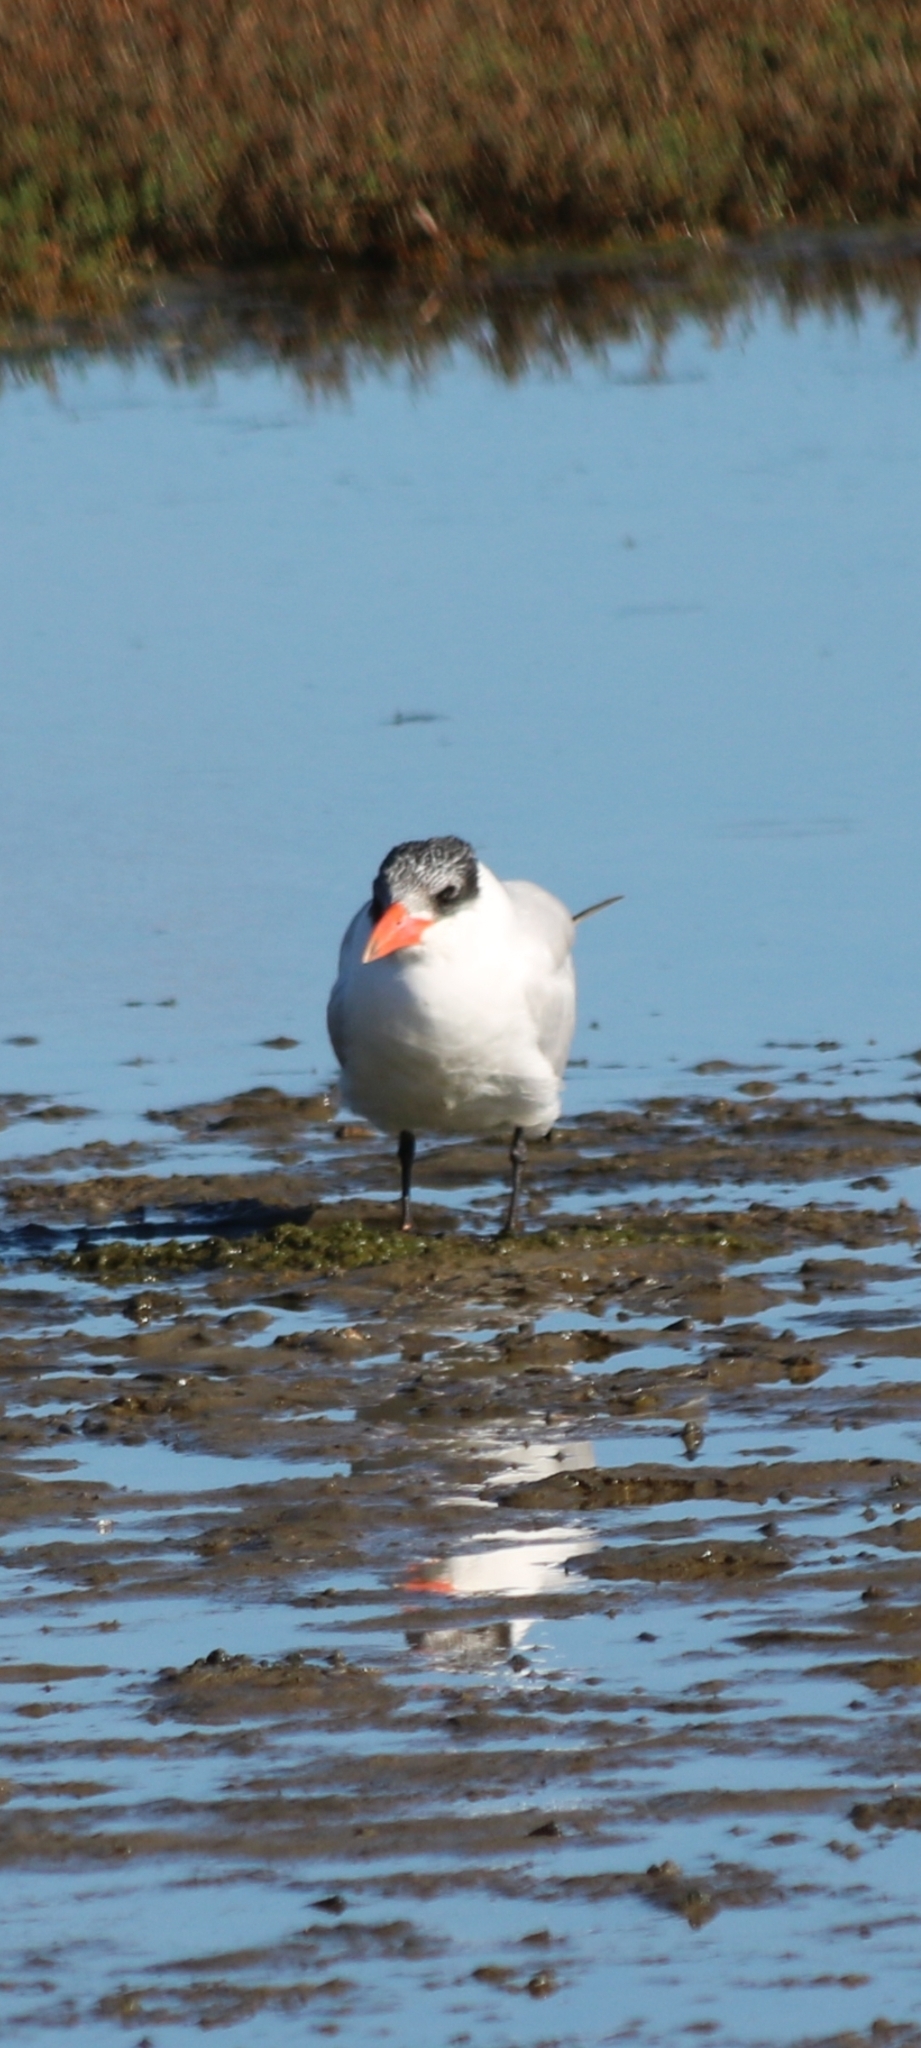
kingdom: Animalia
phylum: Chordata
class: Aves
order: Charadriiformes
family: Laridae
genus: Hydroprogne
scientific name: Hydroprogne caspia
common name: Caspian tern
